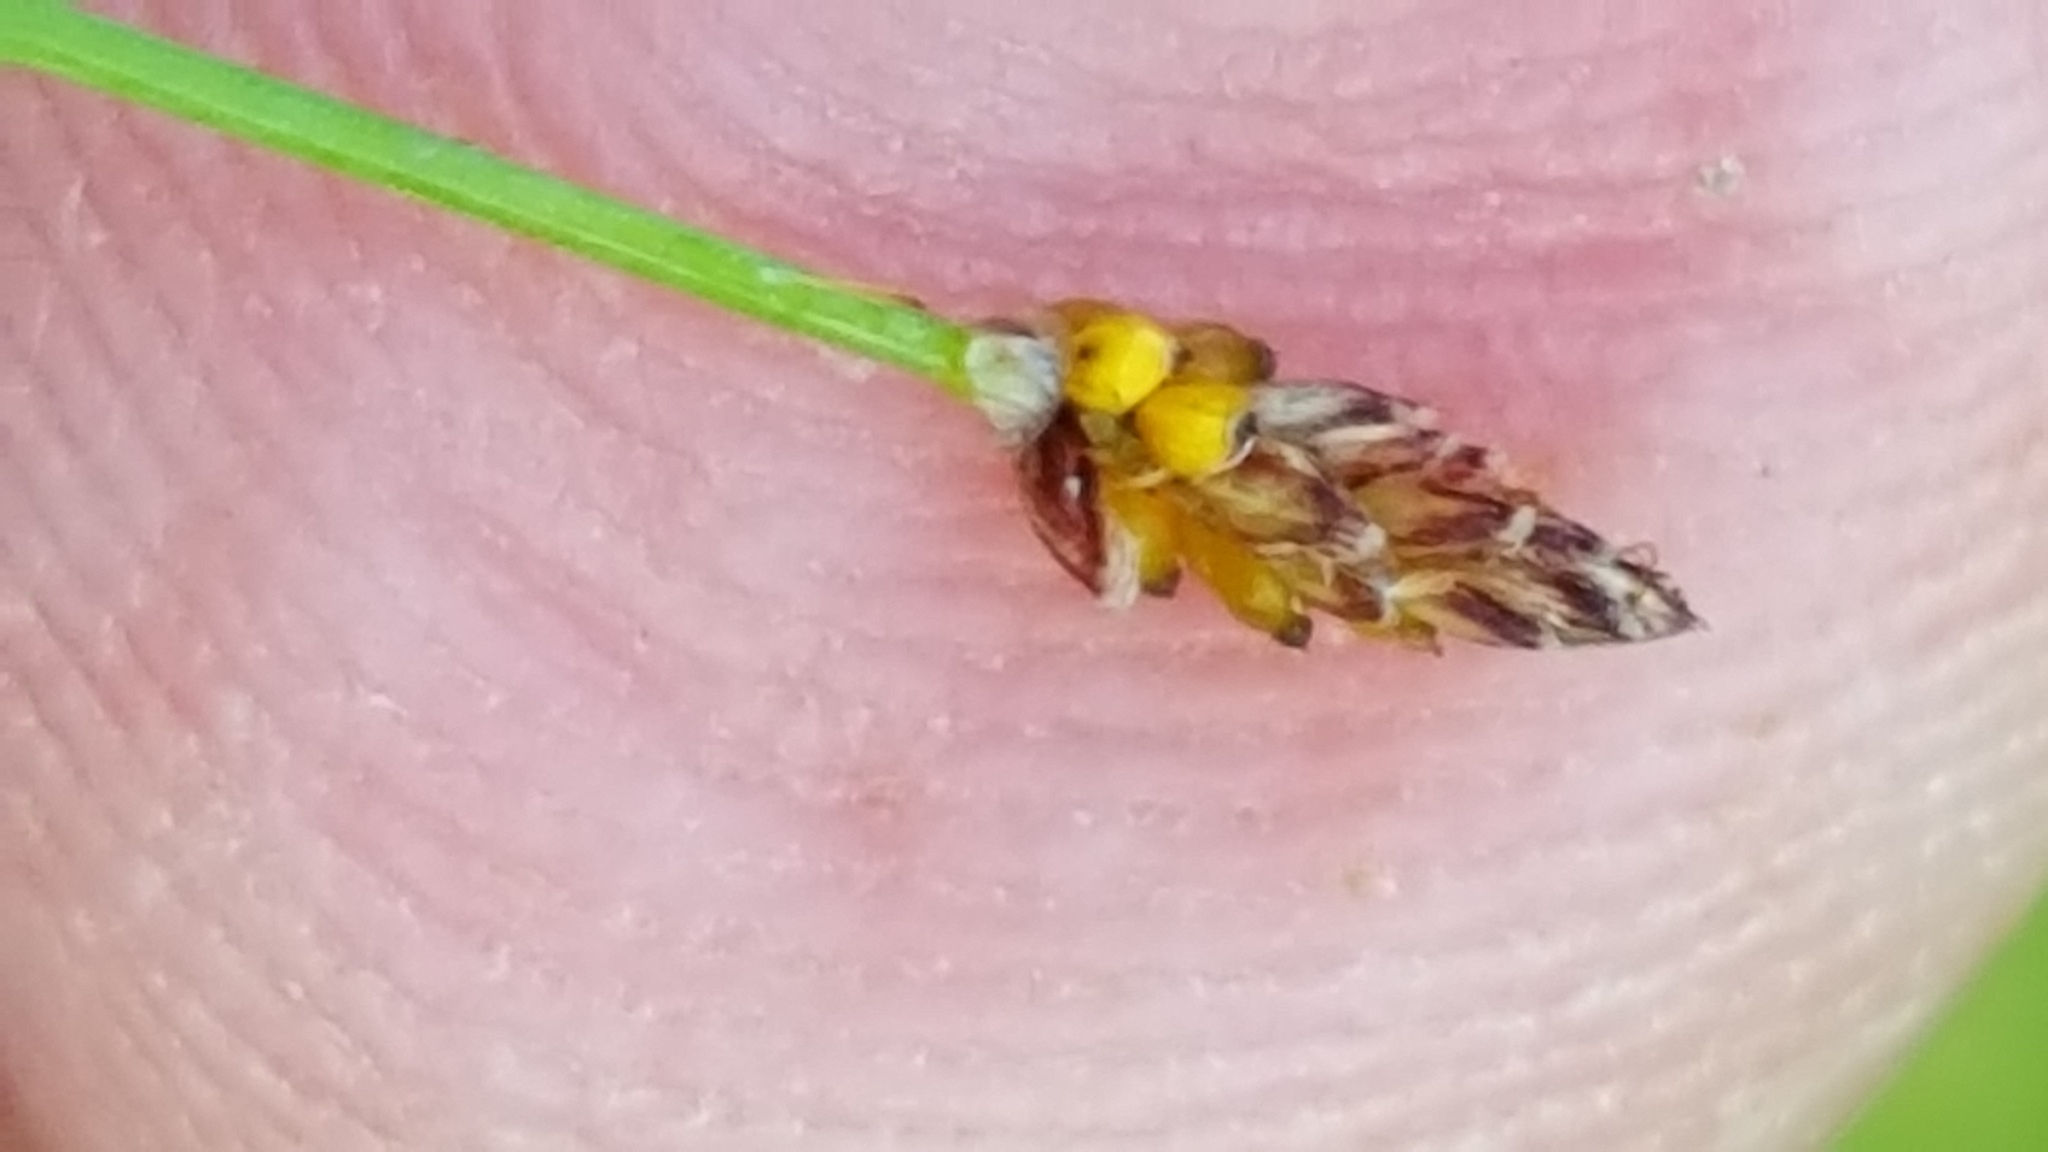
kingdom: Plantae
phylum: Tracheophyta
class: Liliopsida
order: Poales
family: Cyperaceae
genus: Eleocharis
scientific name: Eleocharis nitida
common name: Neat spikerush
